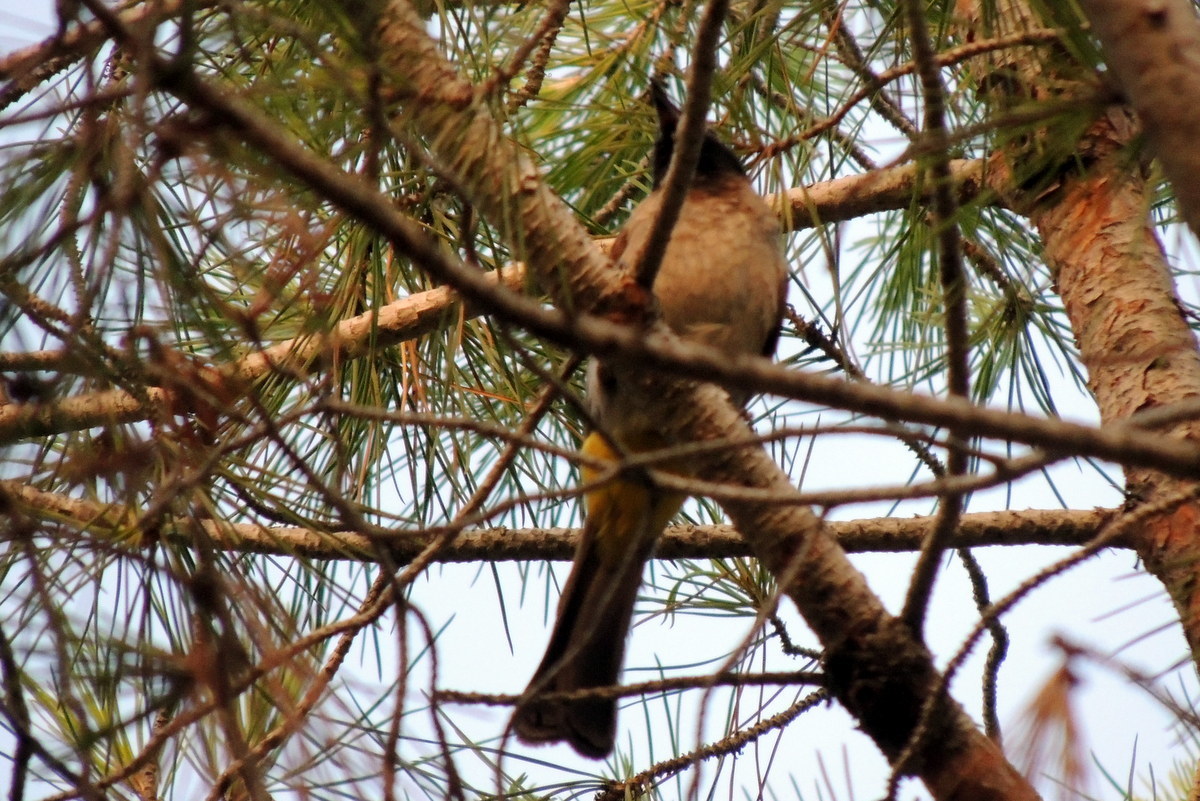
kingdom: Animalia
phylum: Chordata
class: Aves
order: Passeriformes
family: Pycnonotidae
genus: Pycnonotus
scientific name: Pycnonotus xanthopygos
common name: White-spectacled bulbul
